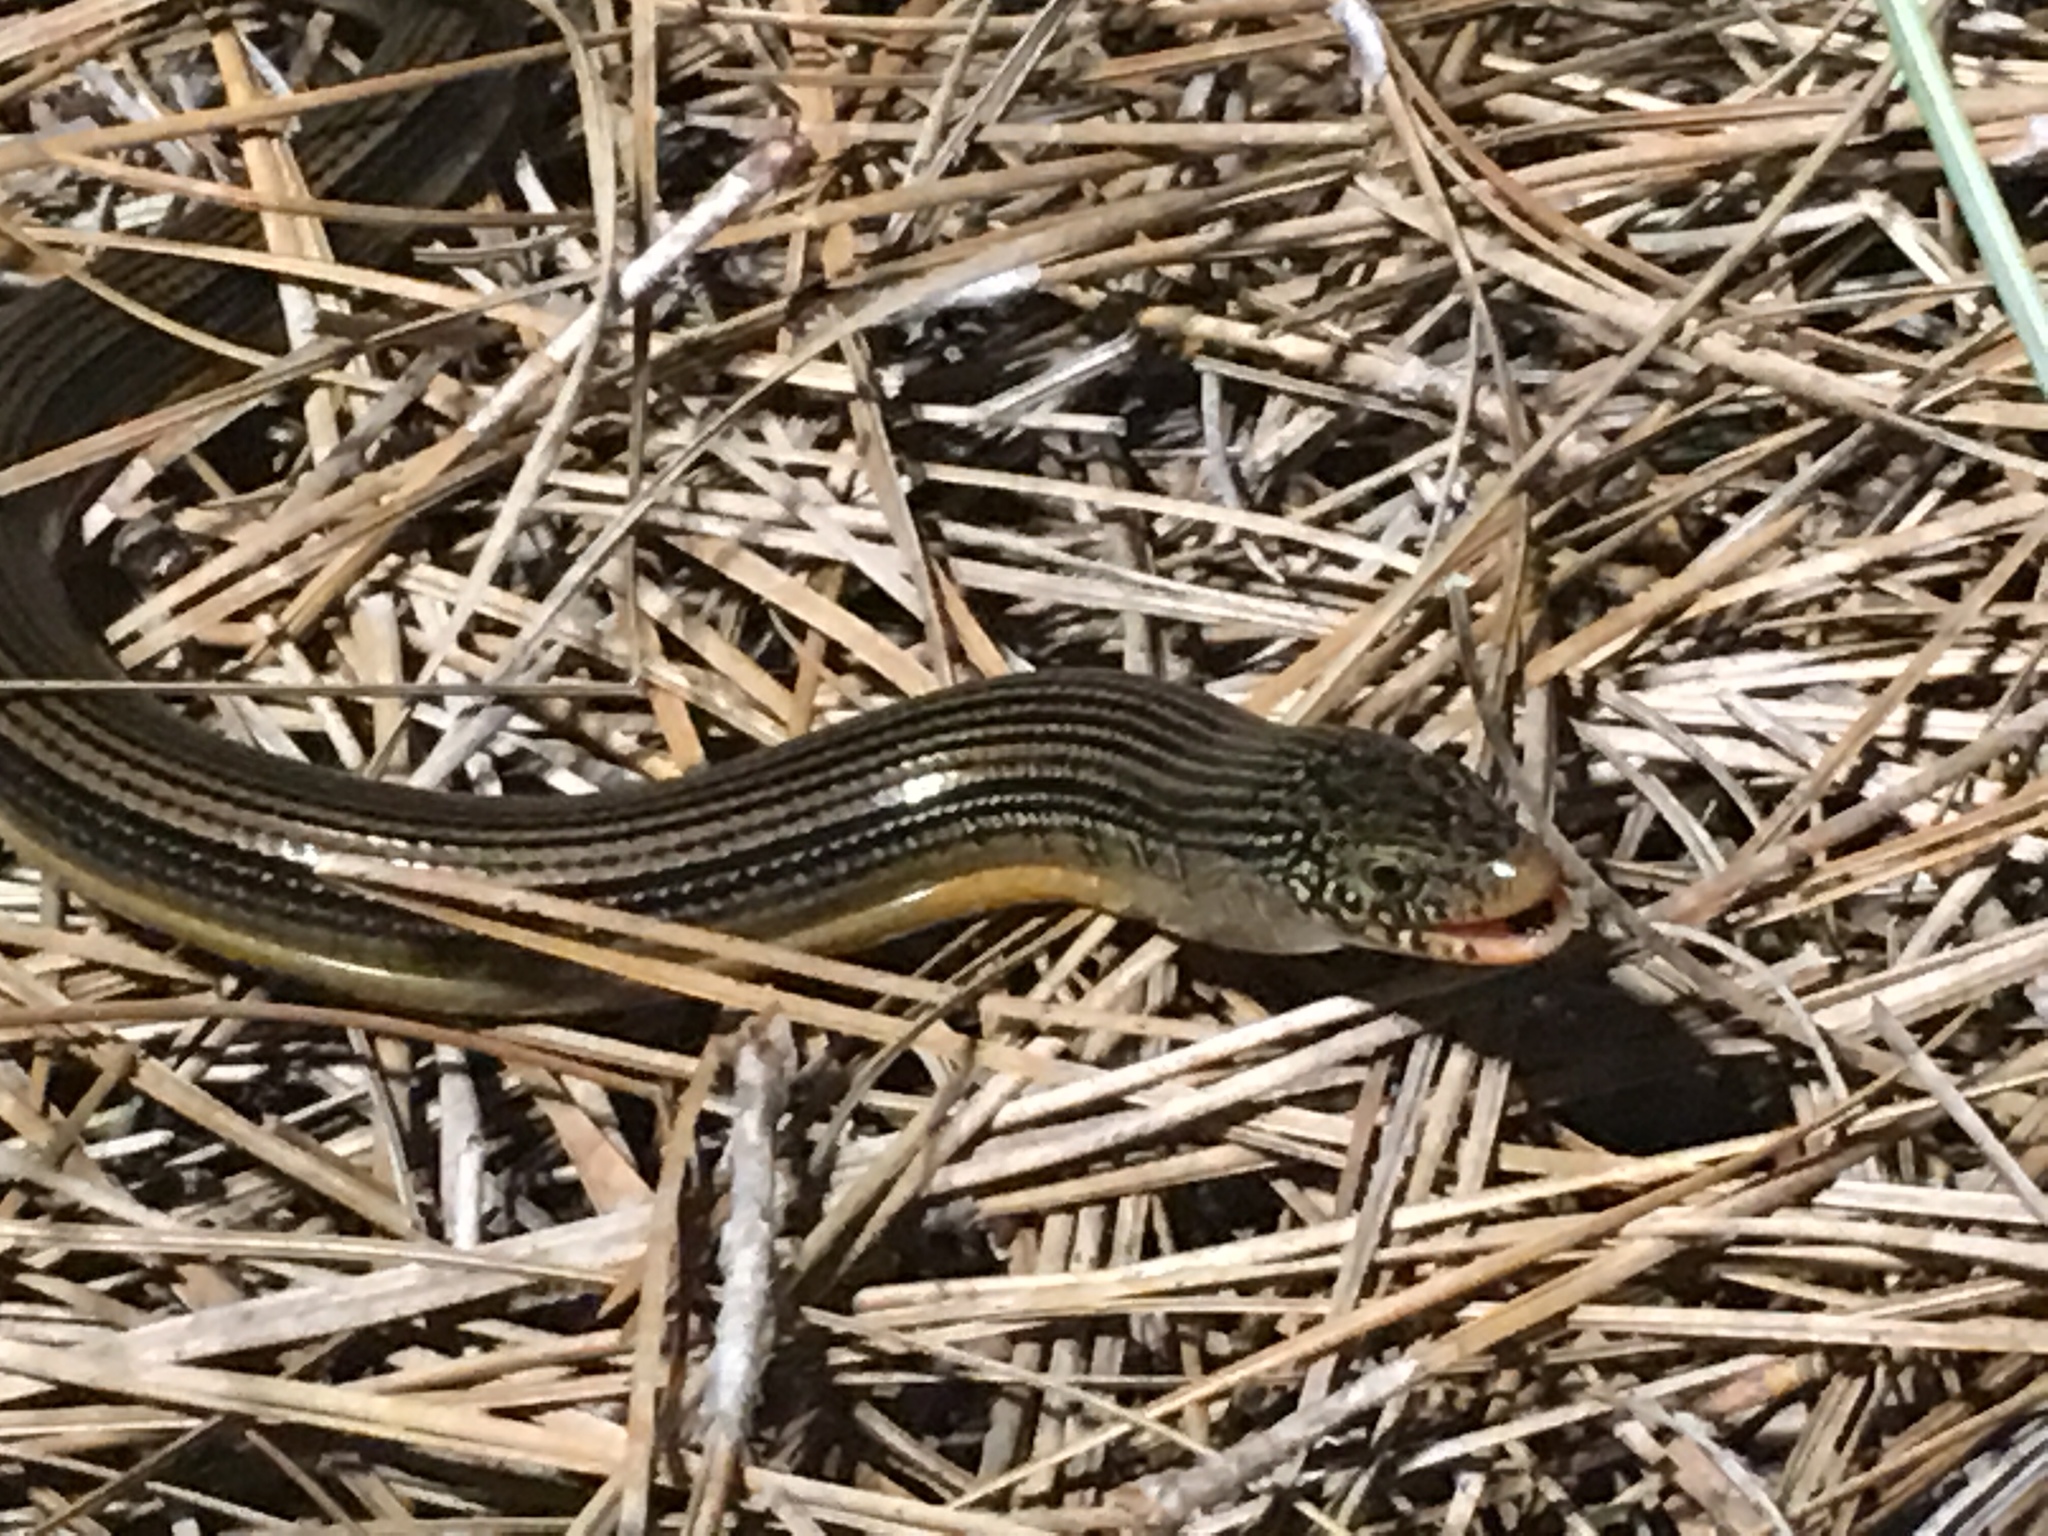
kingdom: Animalia
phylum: Chordata
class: Squamata
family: Anguidae
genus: Ophisaurus
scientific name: Ophisaurus ventralis
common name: Eastern glass lizard
